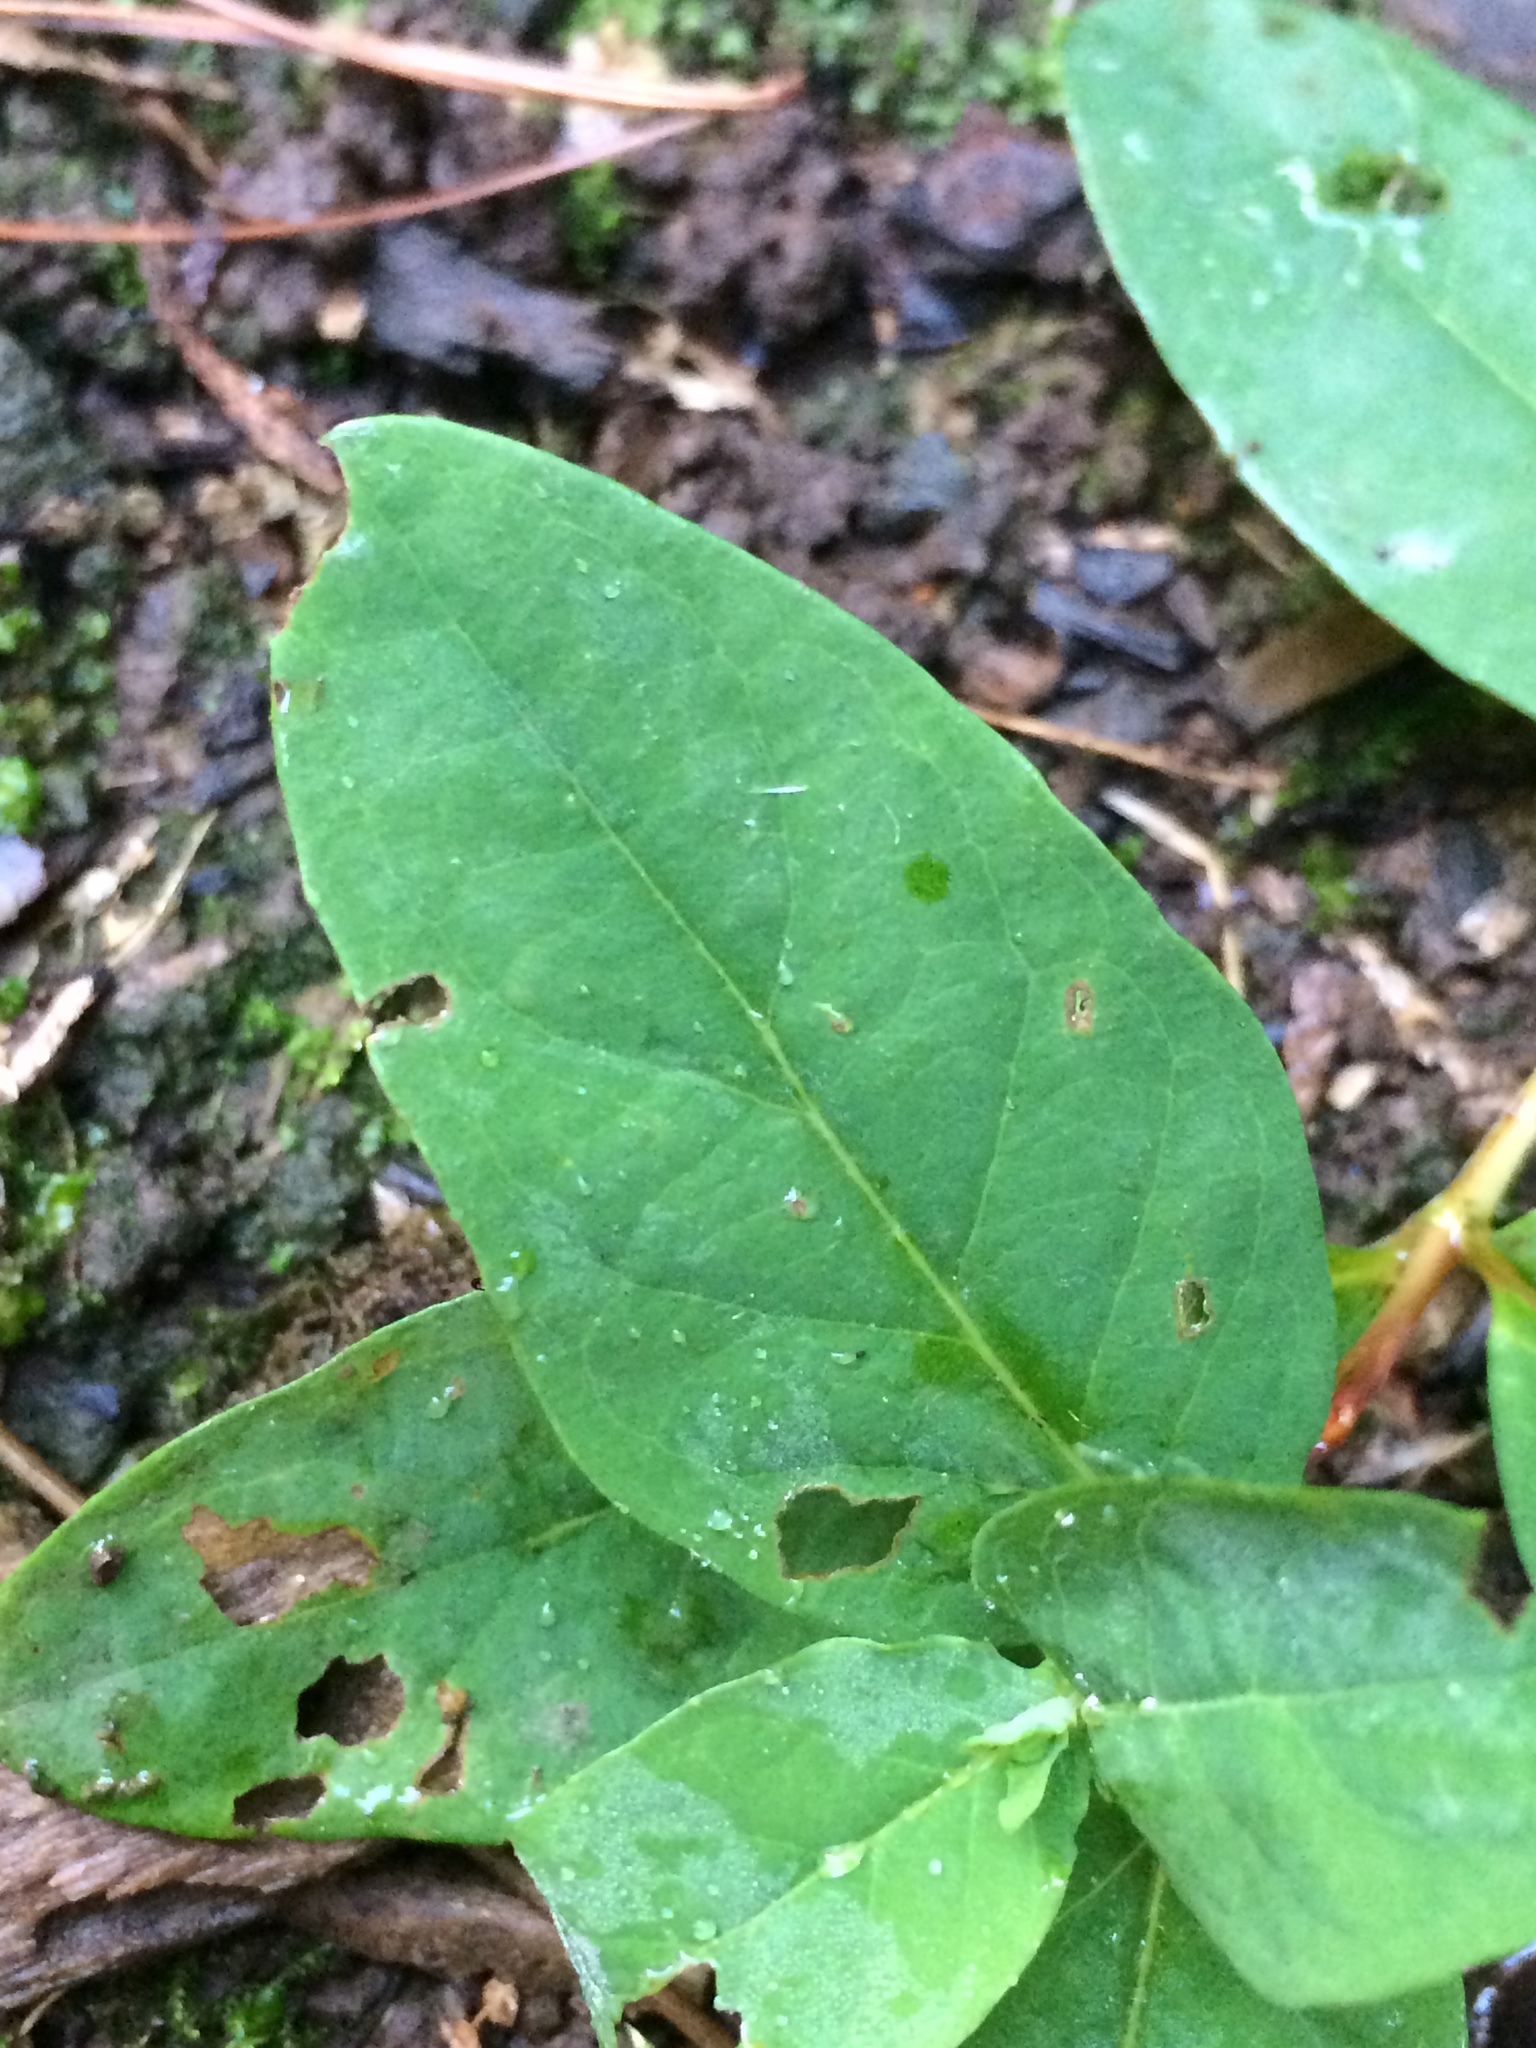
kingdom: Plantae
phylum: Tracheophyta
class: Magnoliopsida
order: Malpighiales
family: Hypericaceae
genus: Hypericum
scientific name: Hypericum androsaemum
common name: Sweet-amber
